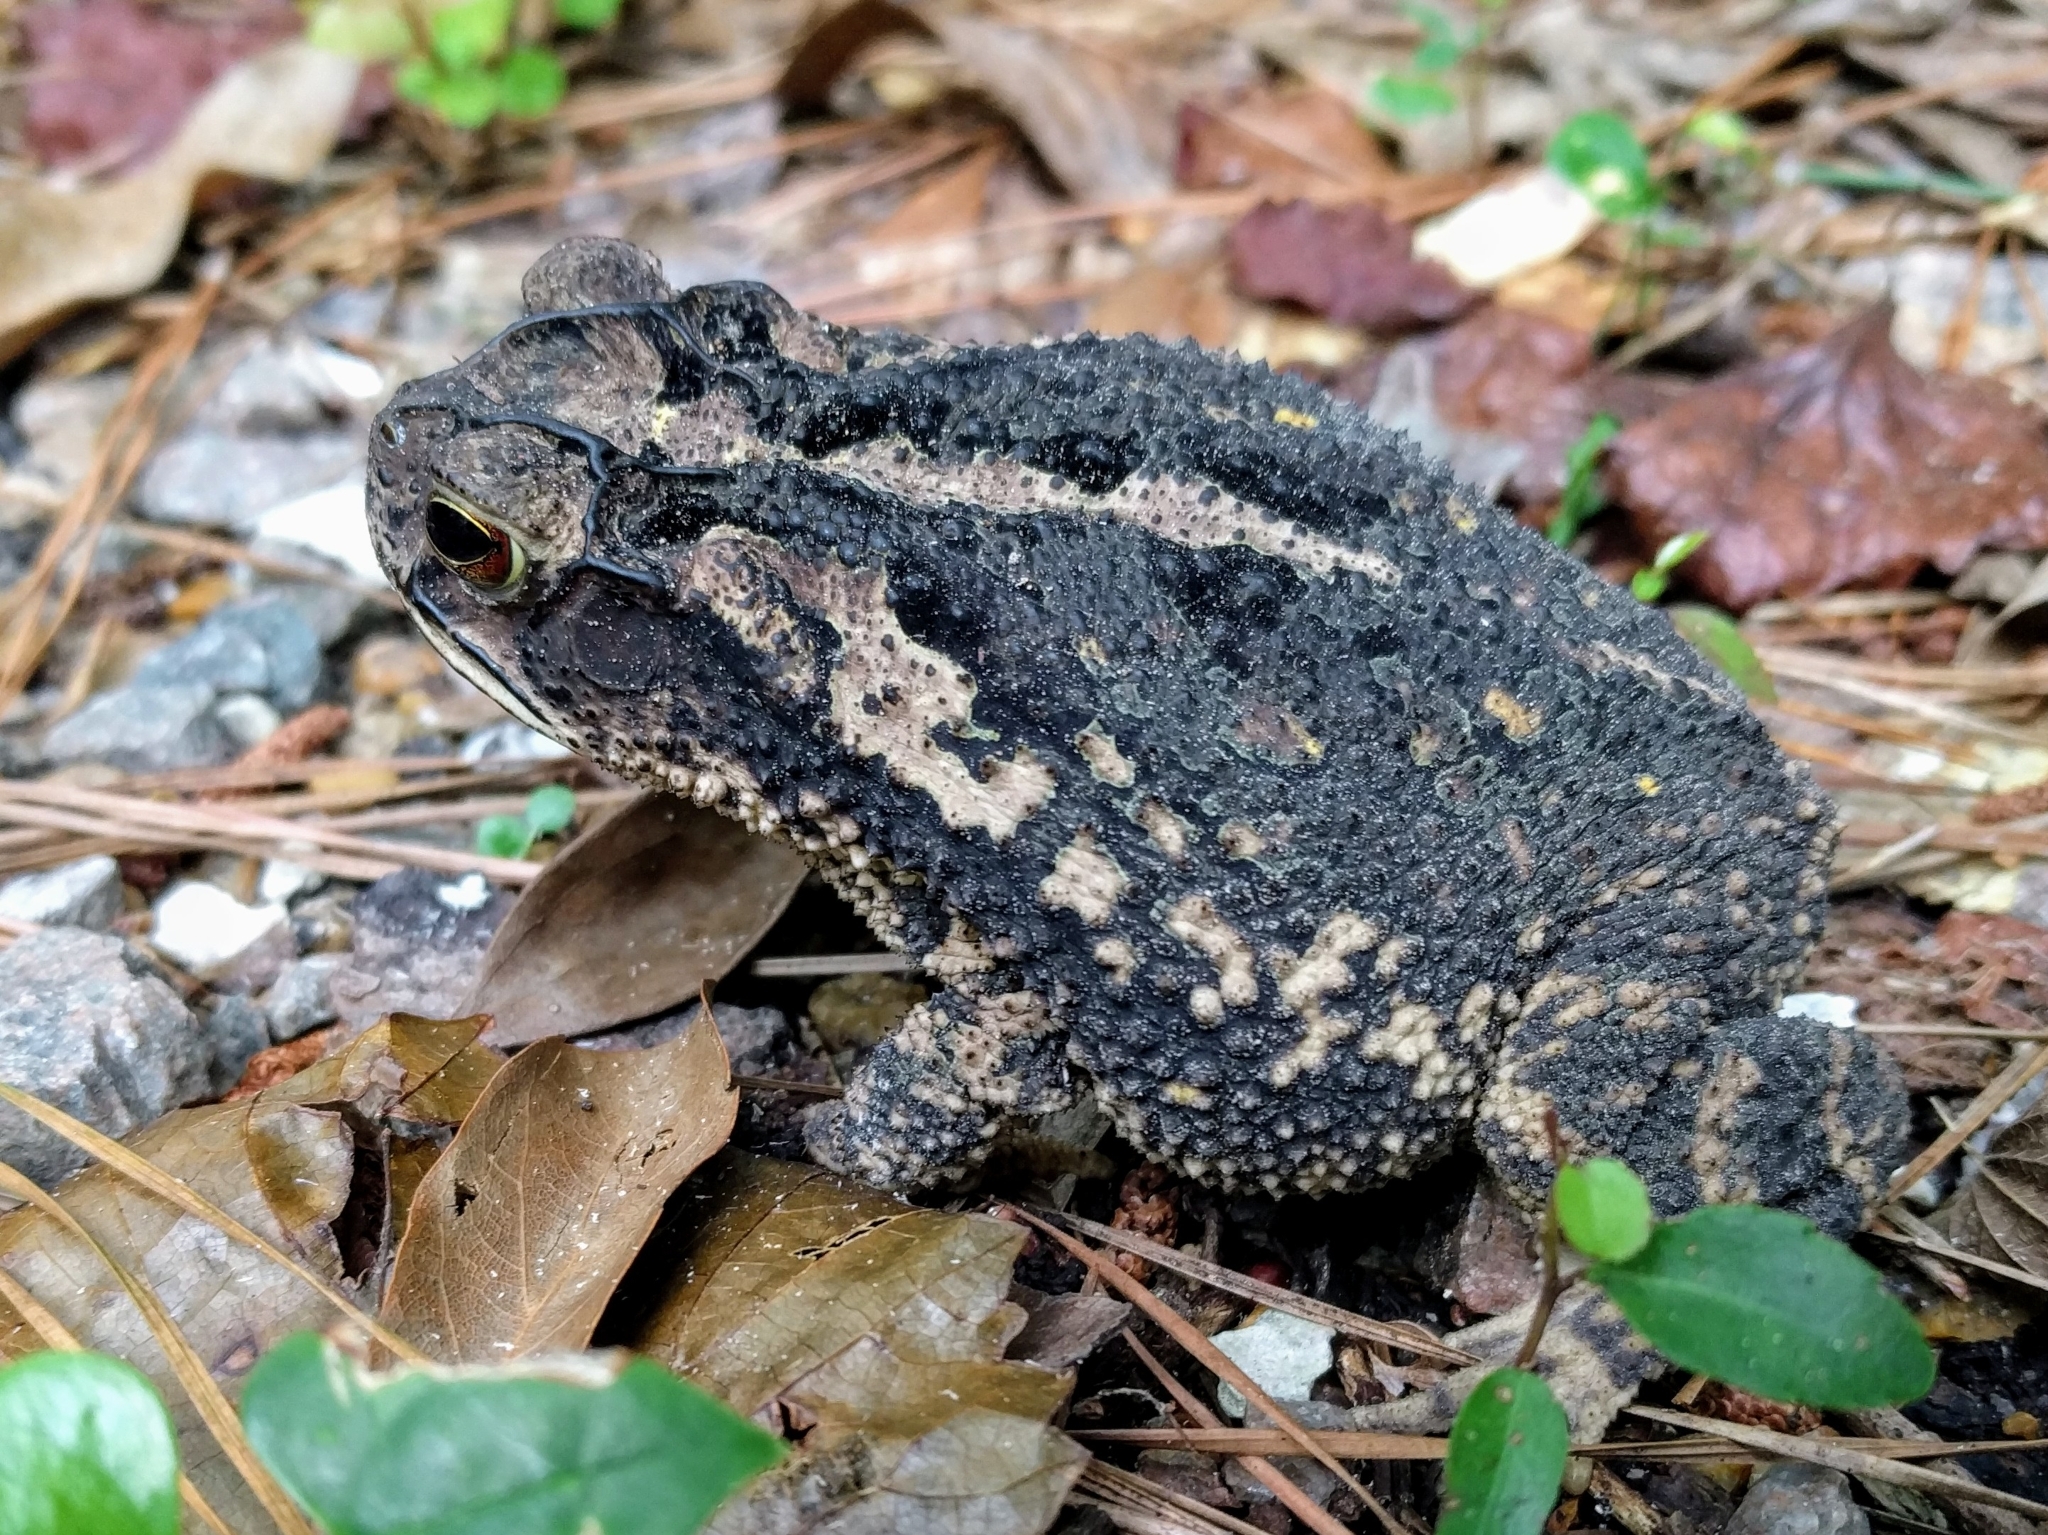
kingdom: Animalia
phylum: Chordata
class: Amphibia
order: Anura
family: Bufonidae
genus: Incilius
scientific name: Incilius nebulifer
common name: Gulf coast toad
